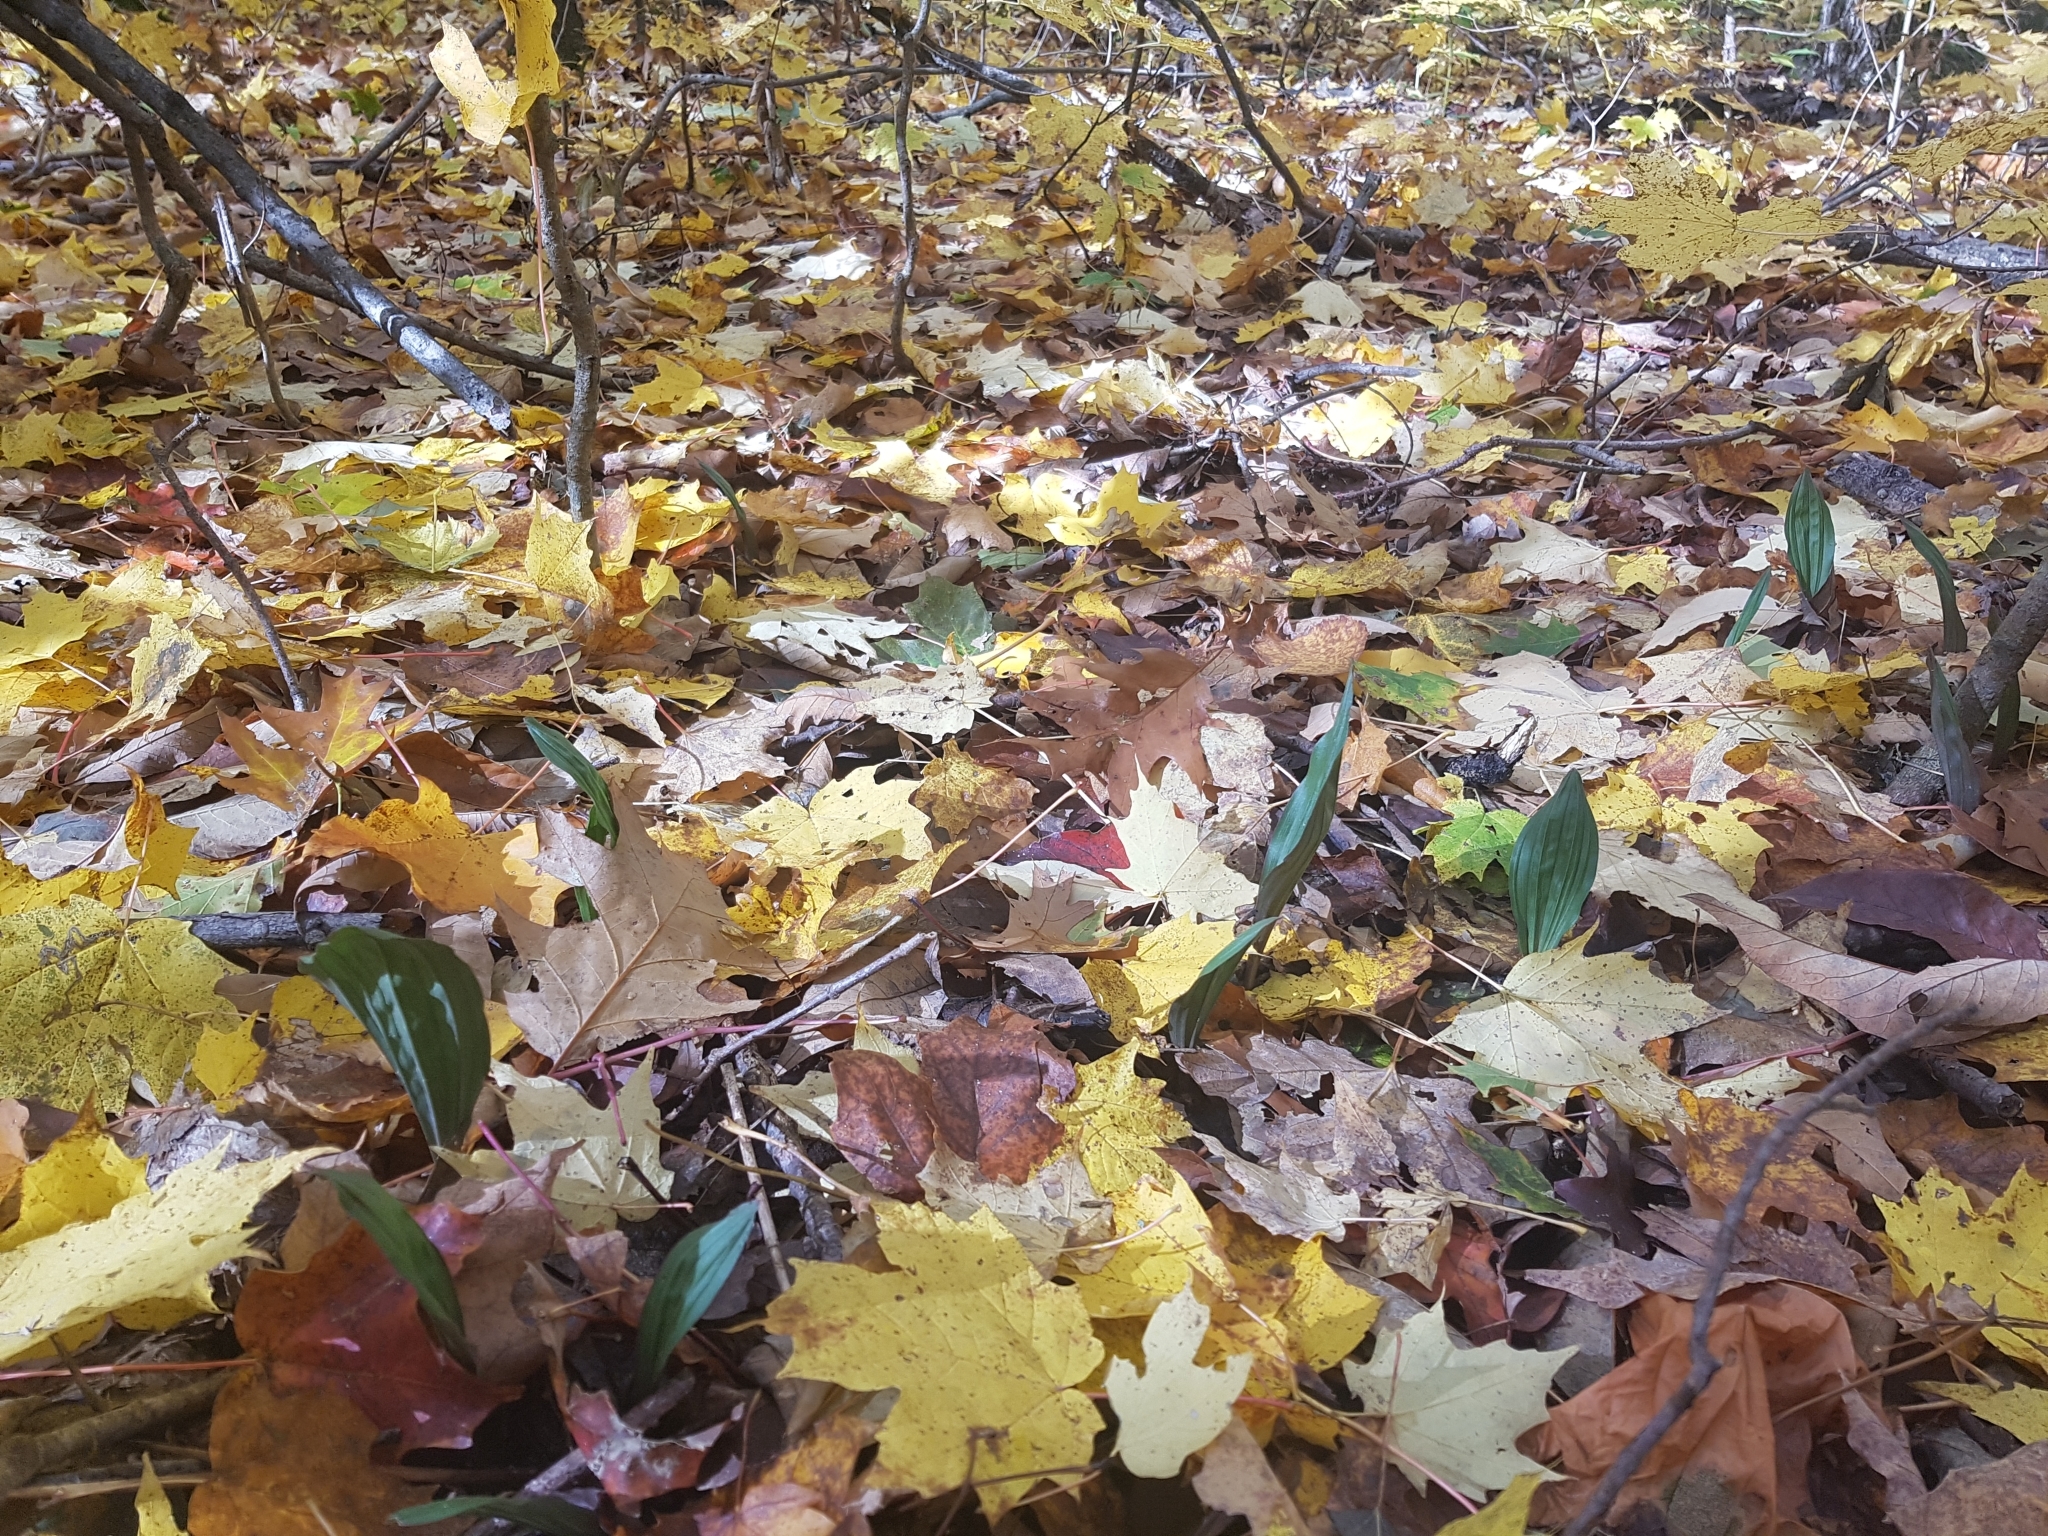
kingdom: Plantae
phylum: Tracheophyta
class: Liliopsida
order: Asparagales
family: Orchidaceae
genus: Aplectrum
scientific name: Aplectrum hyemale
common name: Adam-and-eve
